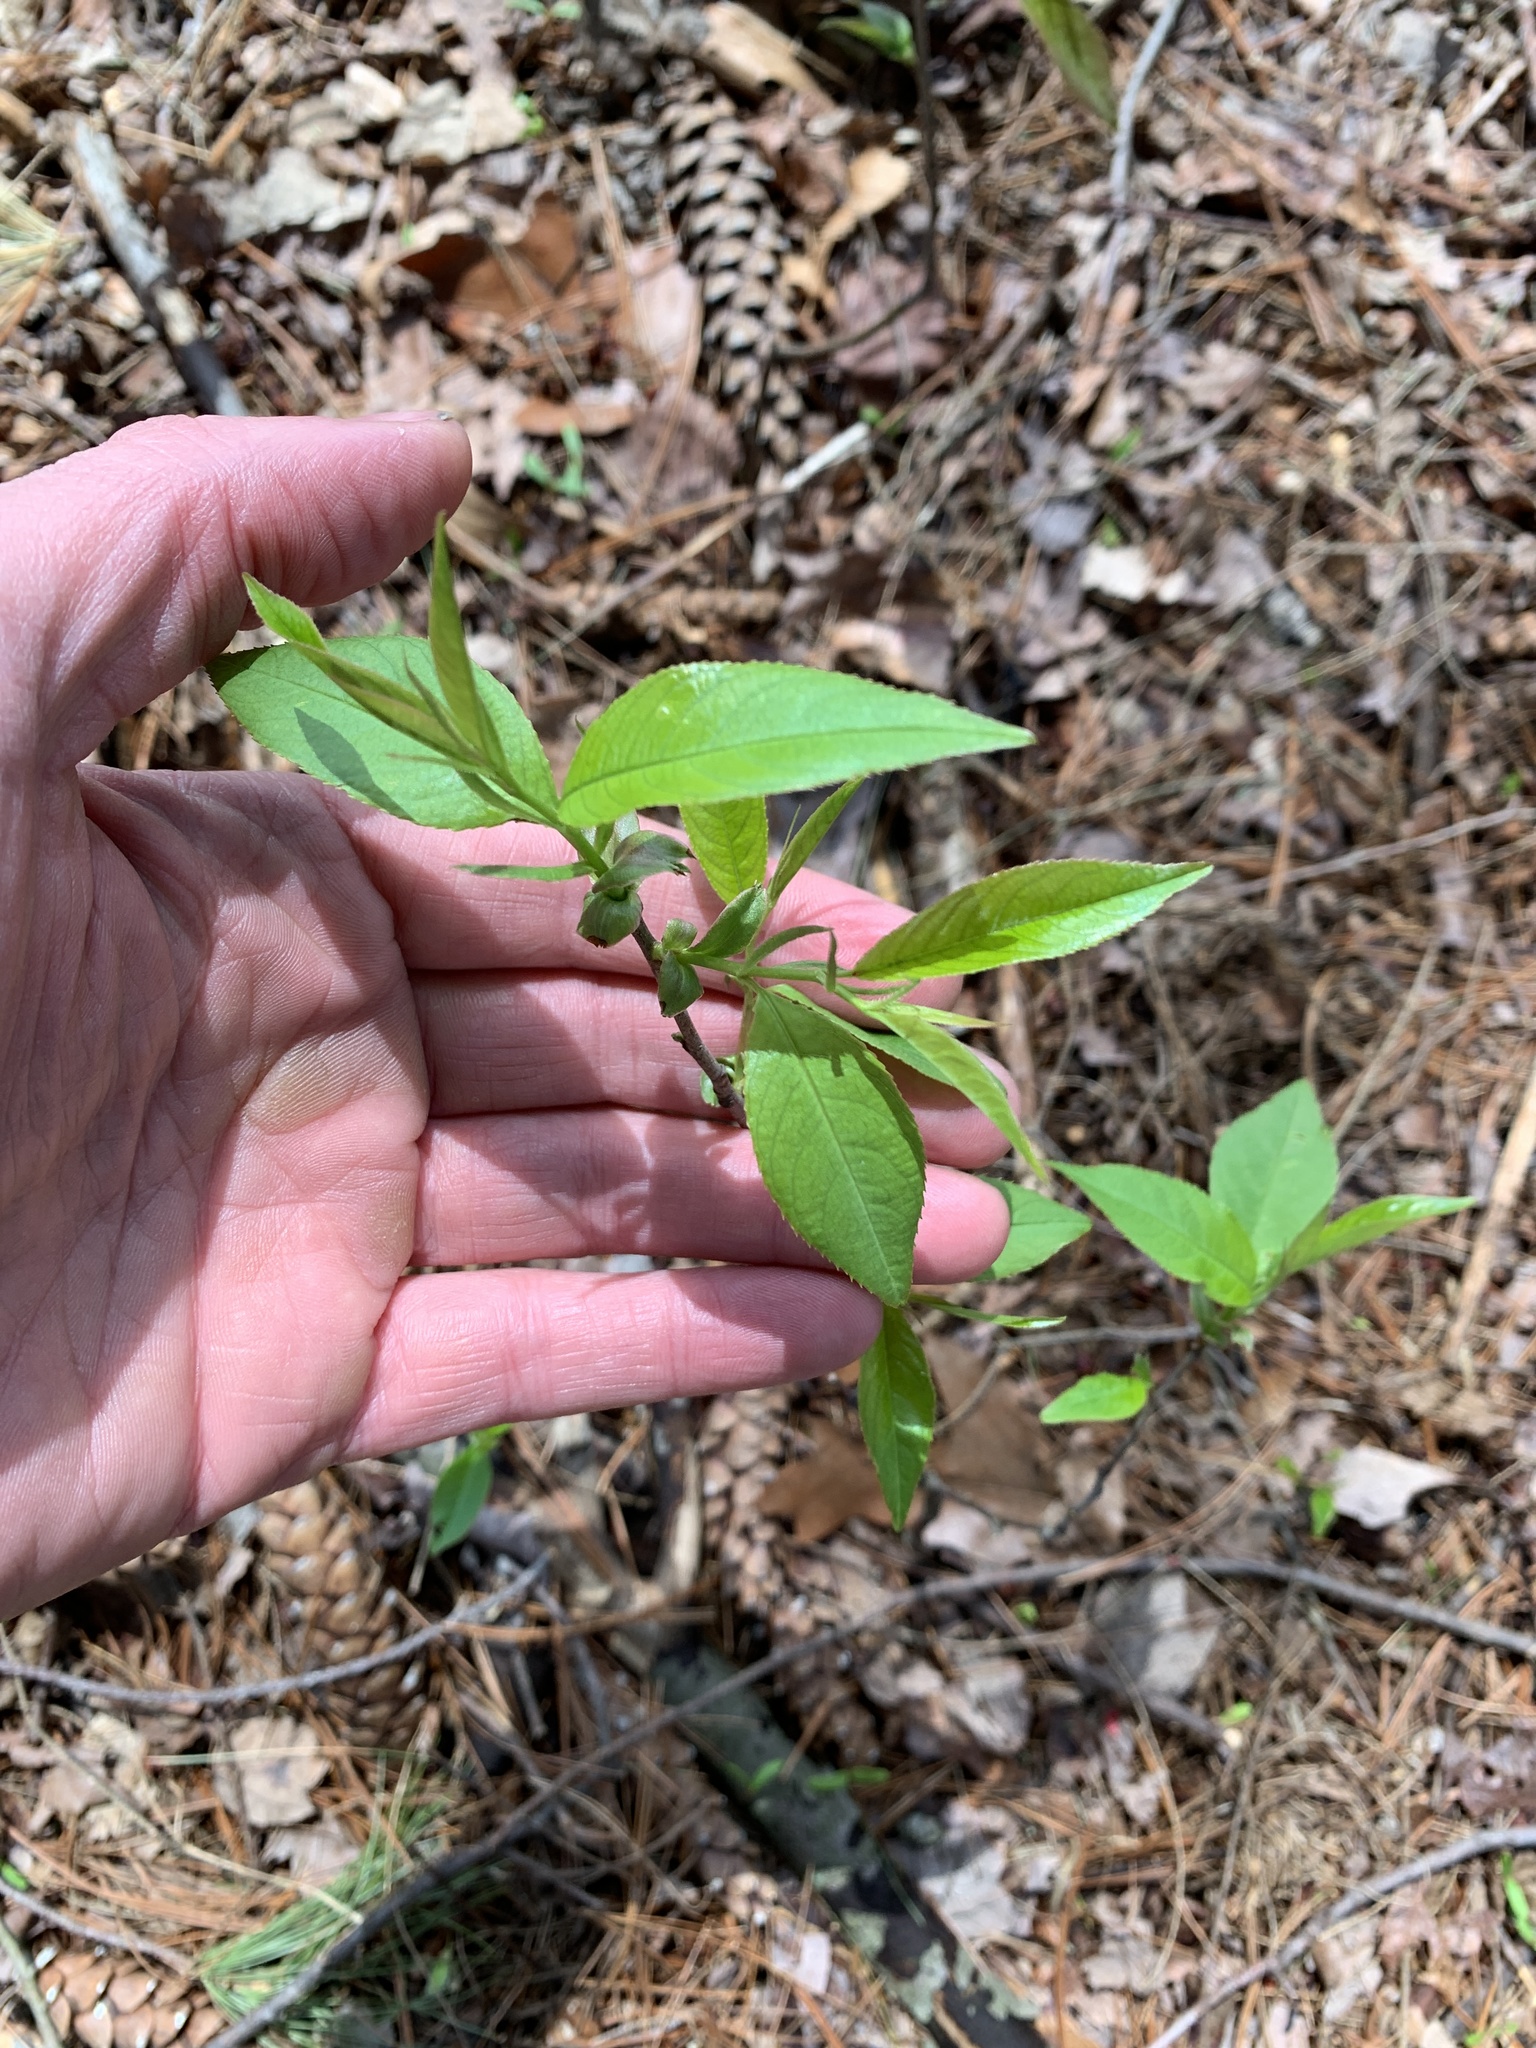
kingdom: Plantae
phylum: Tracheophyta
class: Magnoliopsida
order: Rosales
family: Rosaceae
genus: Prunus
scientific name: Prunus serotina
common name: Black cherry
